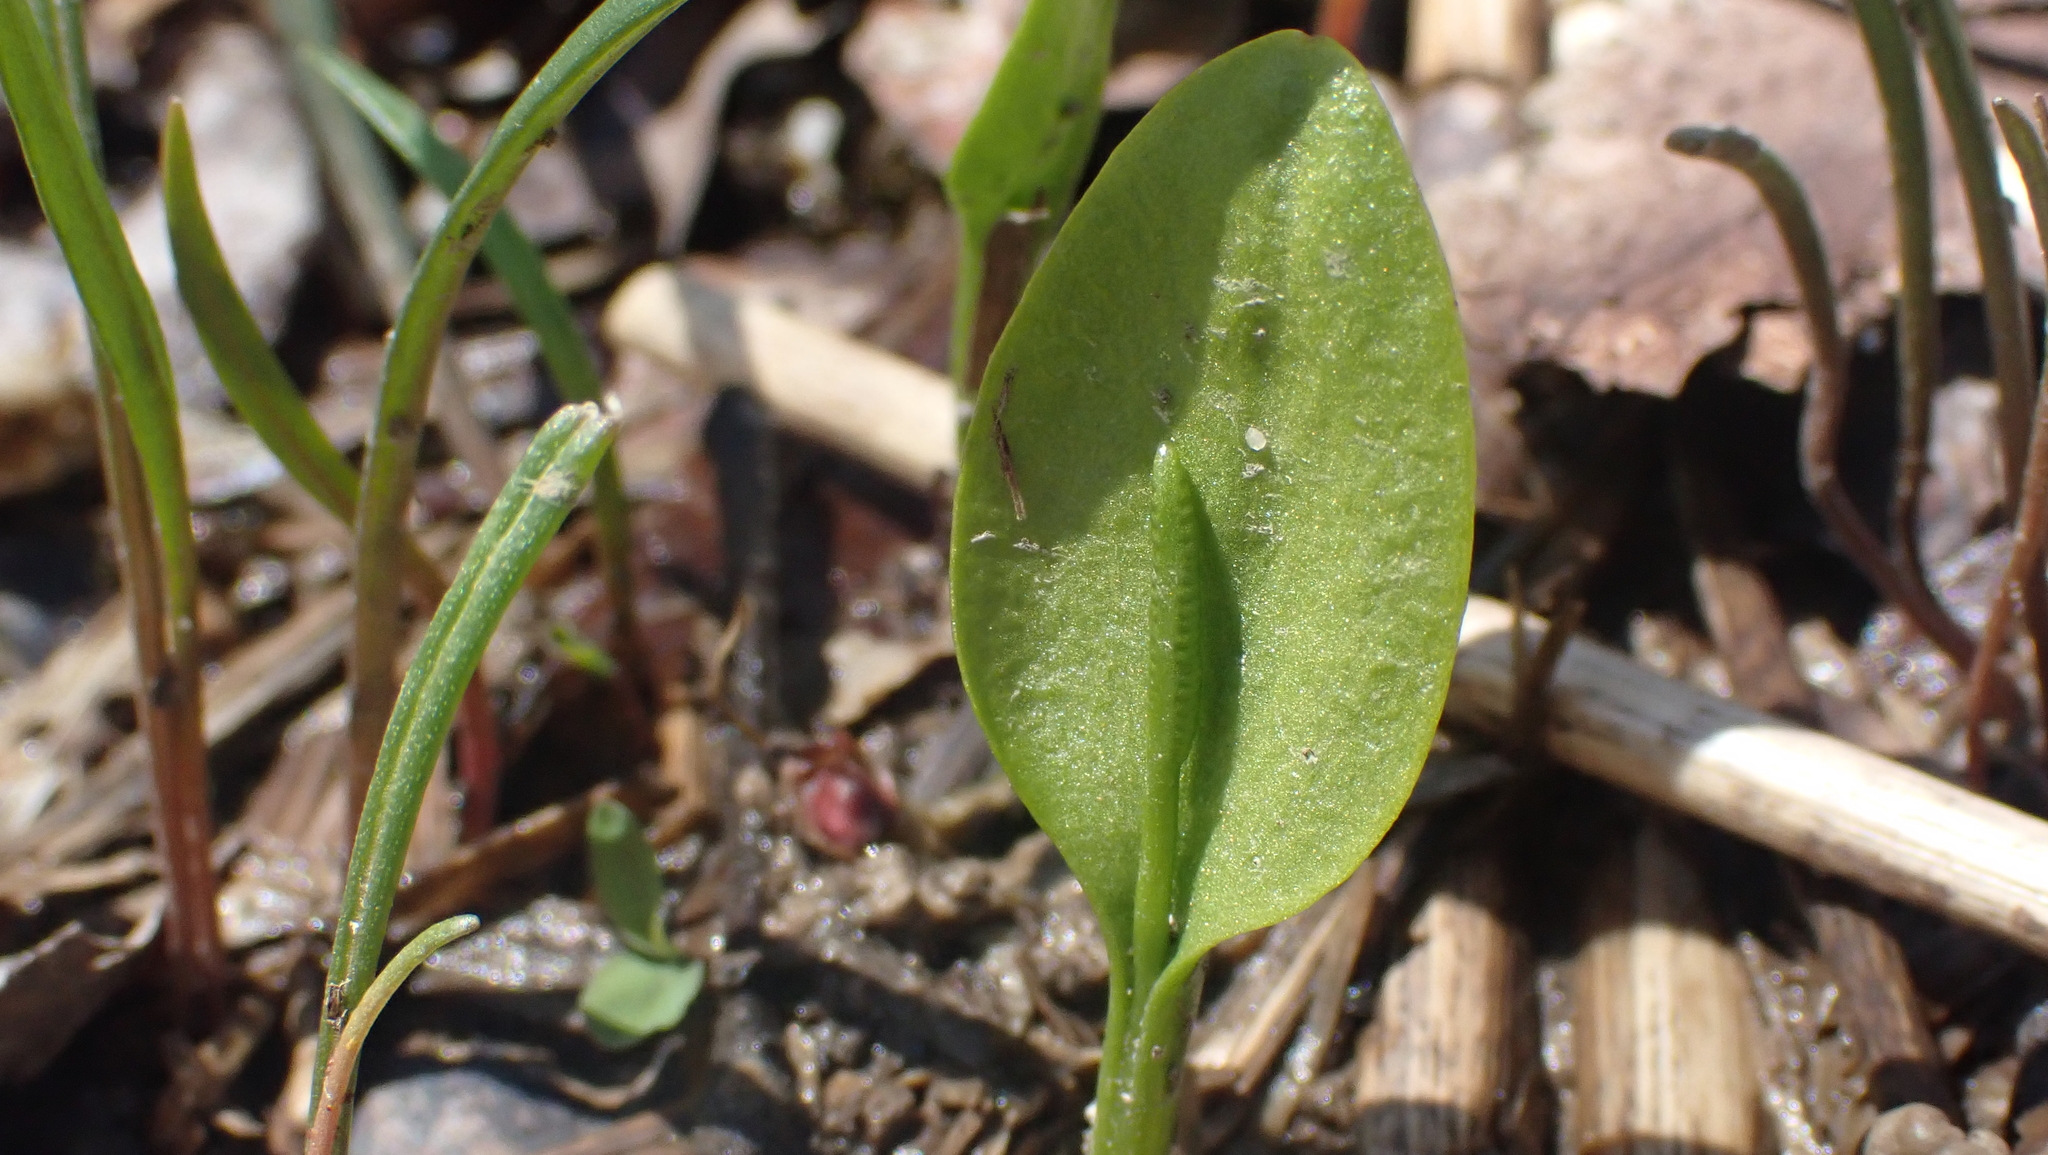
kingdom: Plantae
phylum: Tracheophyta
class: Polypodiopsida
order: Ophioglossales
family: Ophioglossaceae
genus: Ophioglossum
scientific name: Ophioglossum vulgatum
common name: Adder's-tongue
